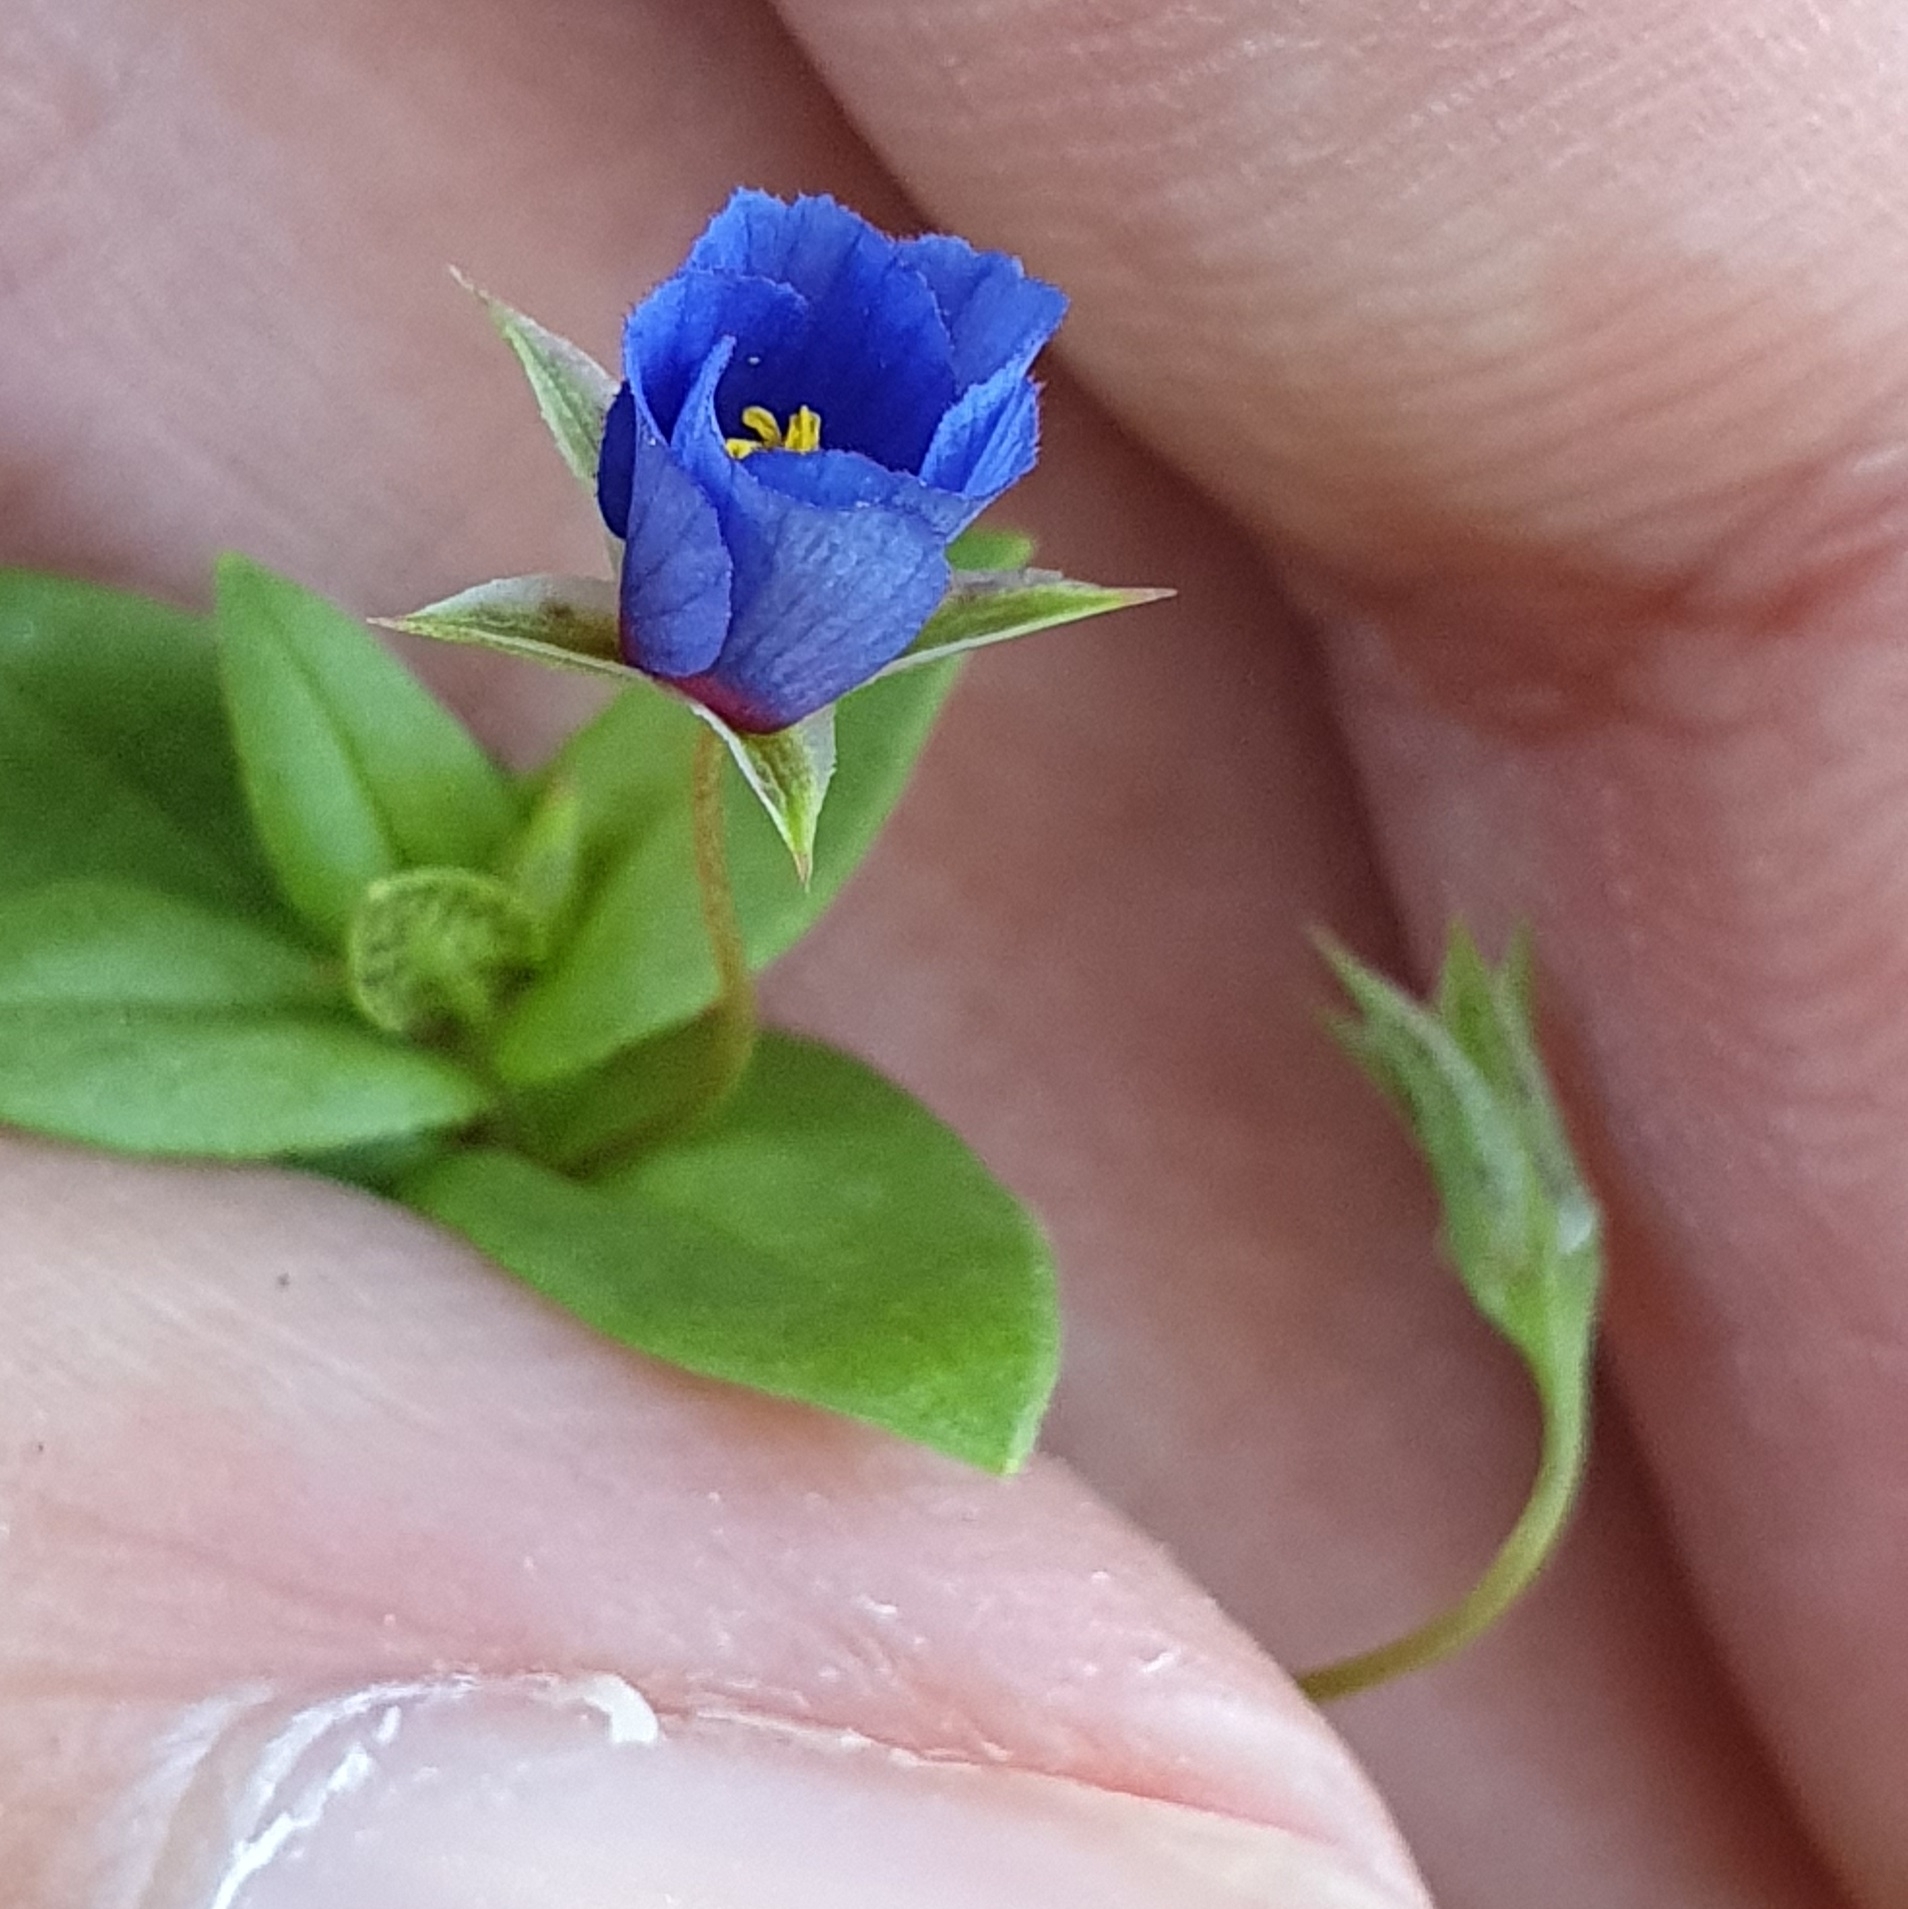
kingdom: Plantae
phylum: Tracheophyta
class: Magnoliopsida
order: Ericales
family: Primulaceae
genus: Lysimachia
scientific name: Lysimachia loeflingii
